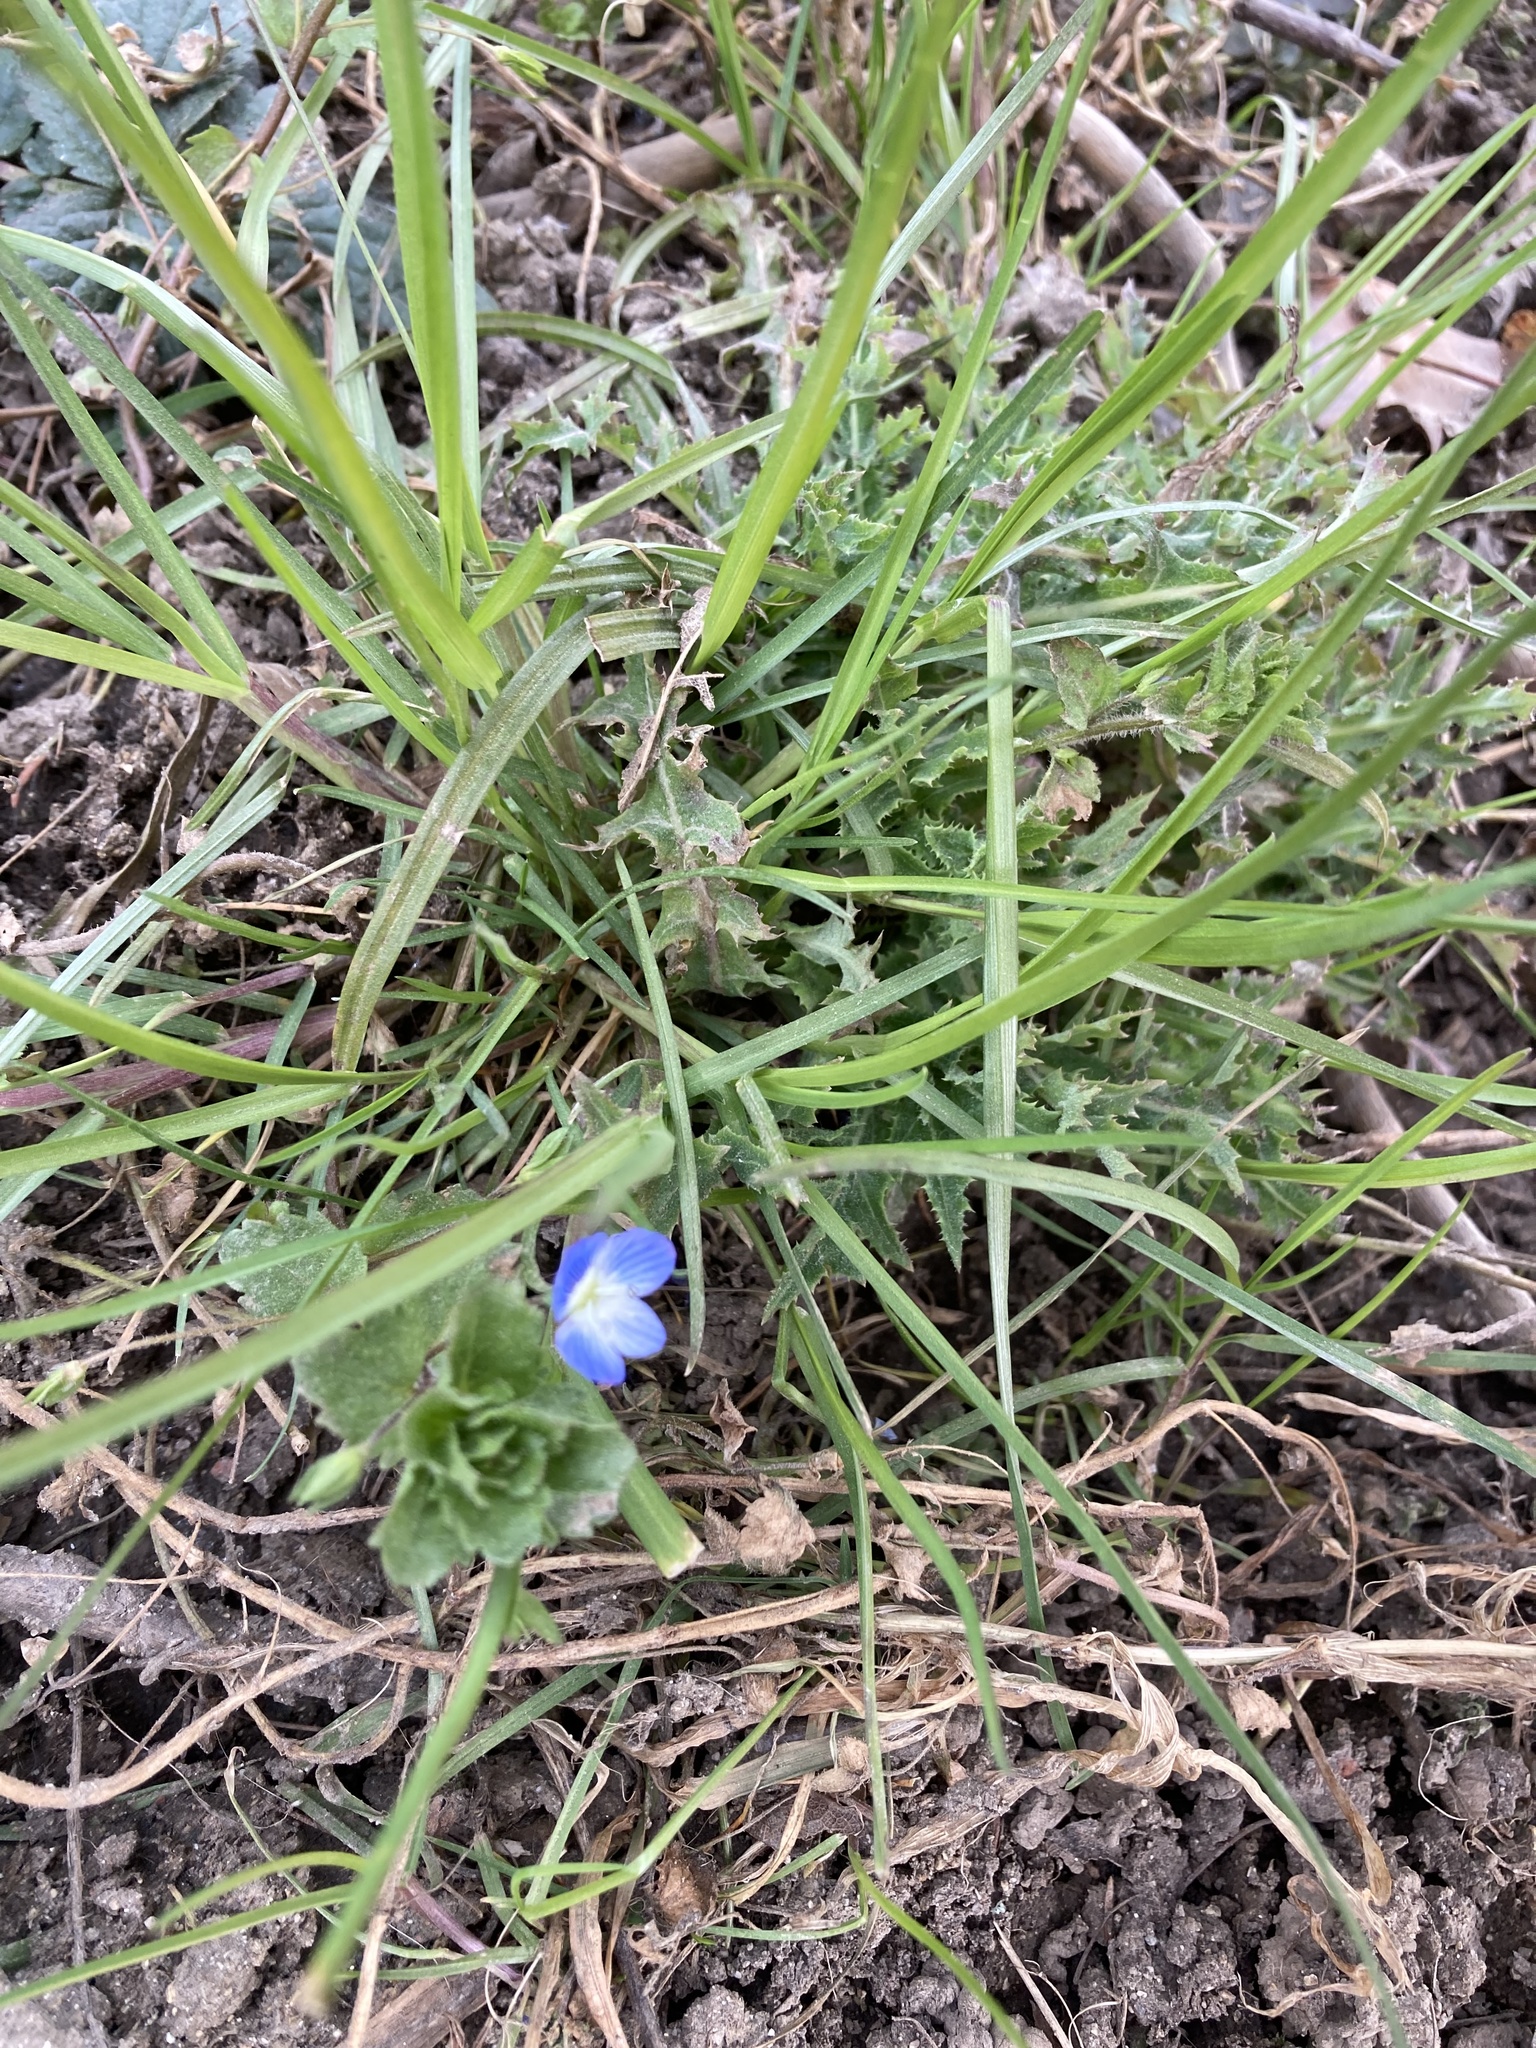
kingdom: Plantae
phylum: Tracheophyta
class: Magnoliopsida
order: Lamiales
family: Plantaginaceae
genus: Veronica
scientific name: Veronica persica
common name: Common field-speedwell
